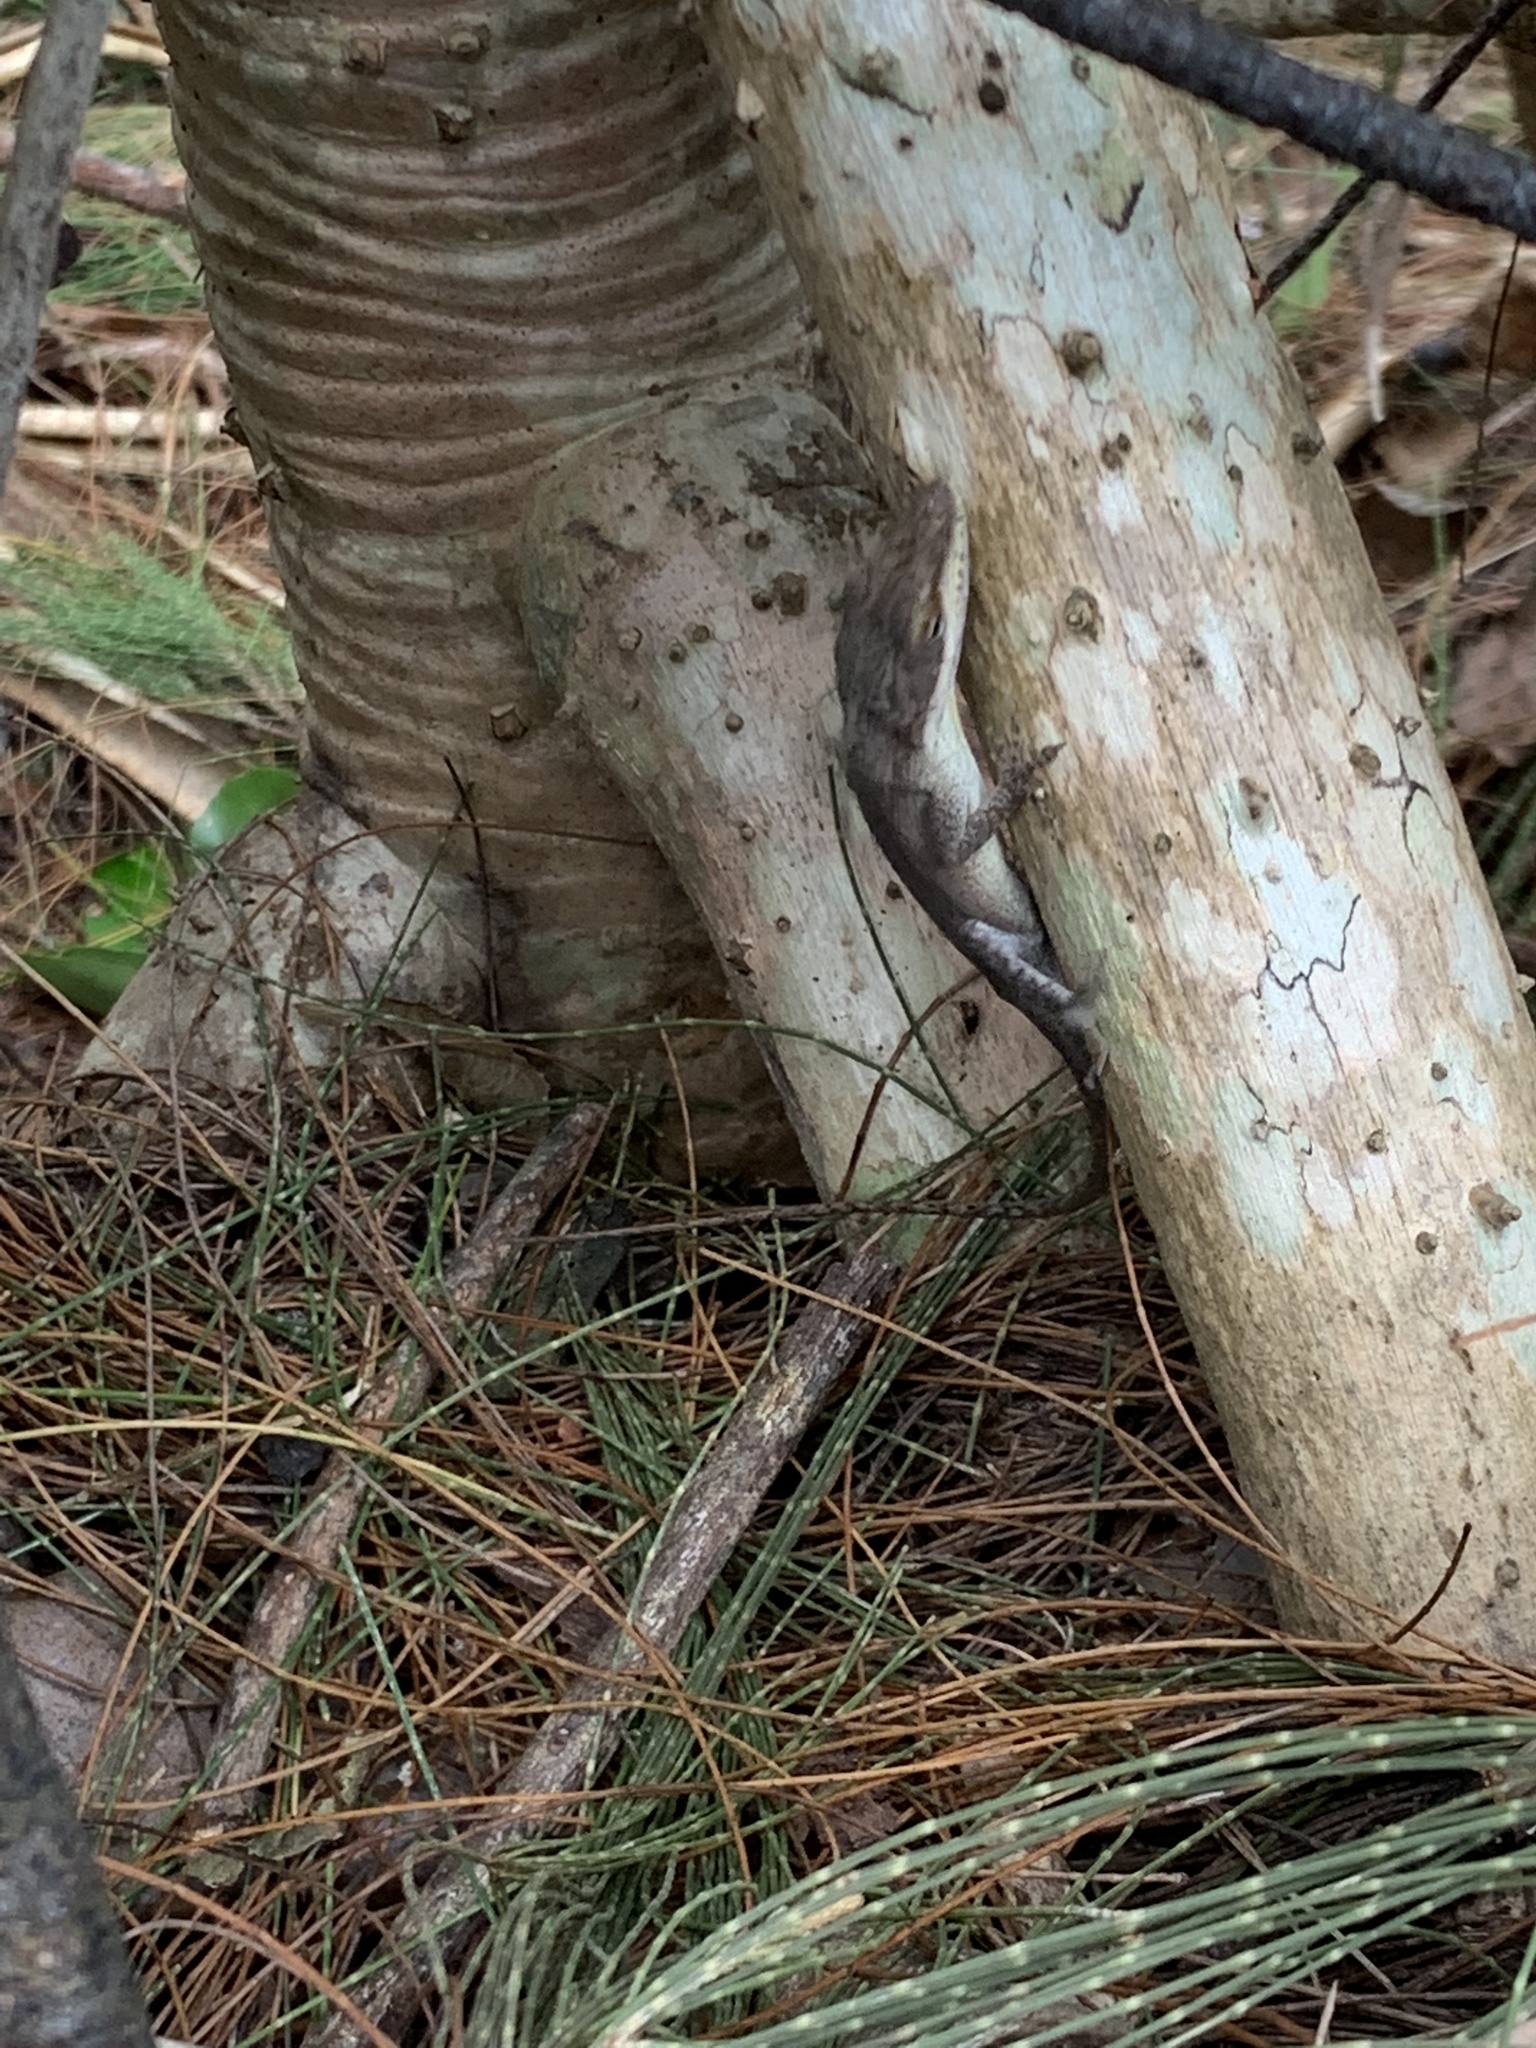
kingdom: Animalia
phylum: Chordata
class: Squamata
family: Dactyloidae
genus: Anolis
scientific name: Anolis carolinensis
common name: Green anole
